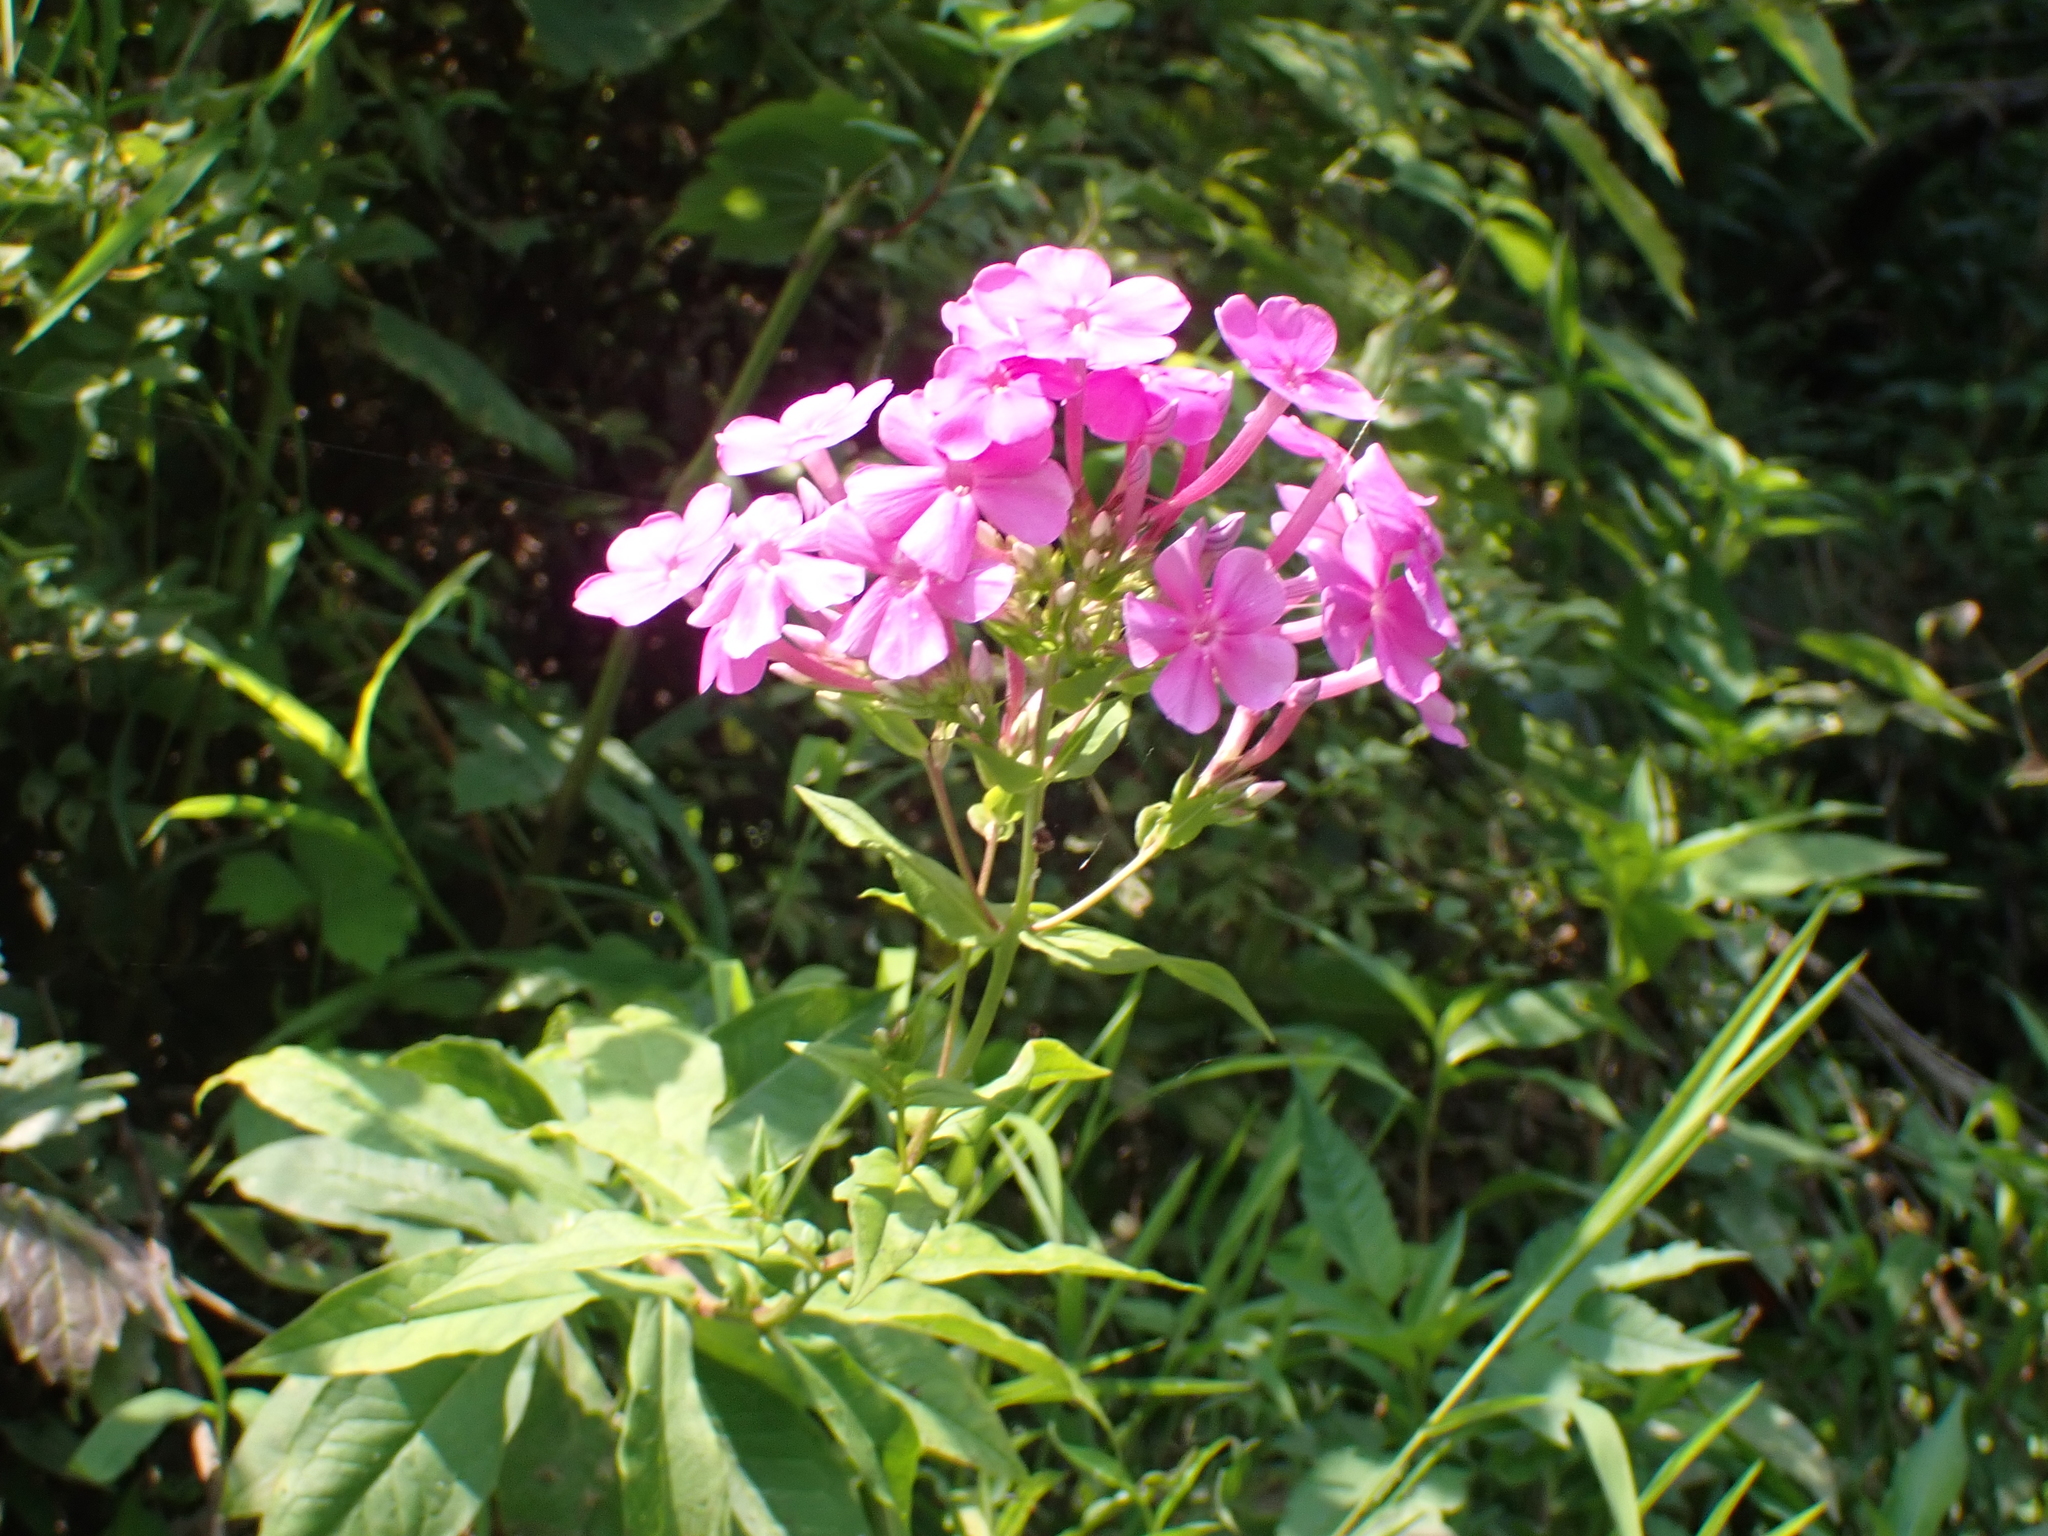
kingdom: Plantae
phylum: Tracheophyta
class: Magnoliopsida
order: Ericales
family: Polemoniaceae
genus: Phlox
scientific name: Phlox paniculata
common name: Fall phlox
